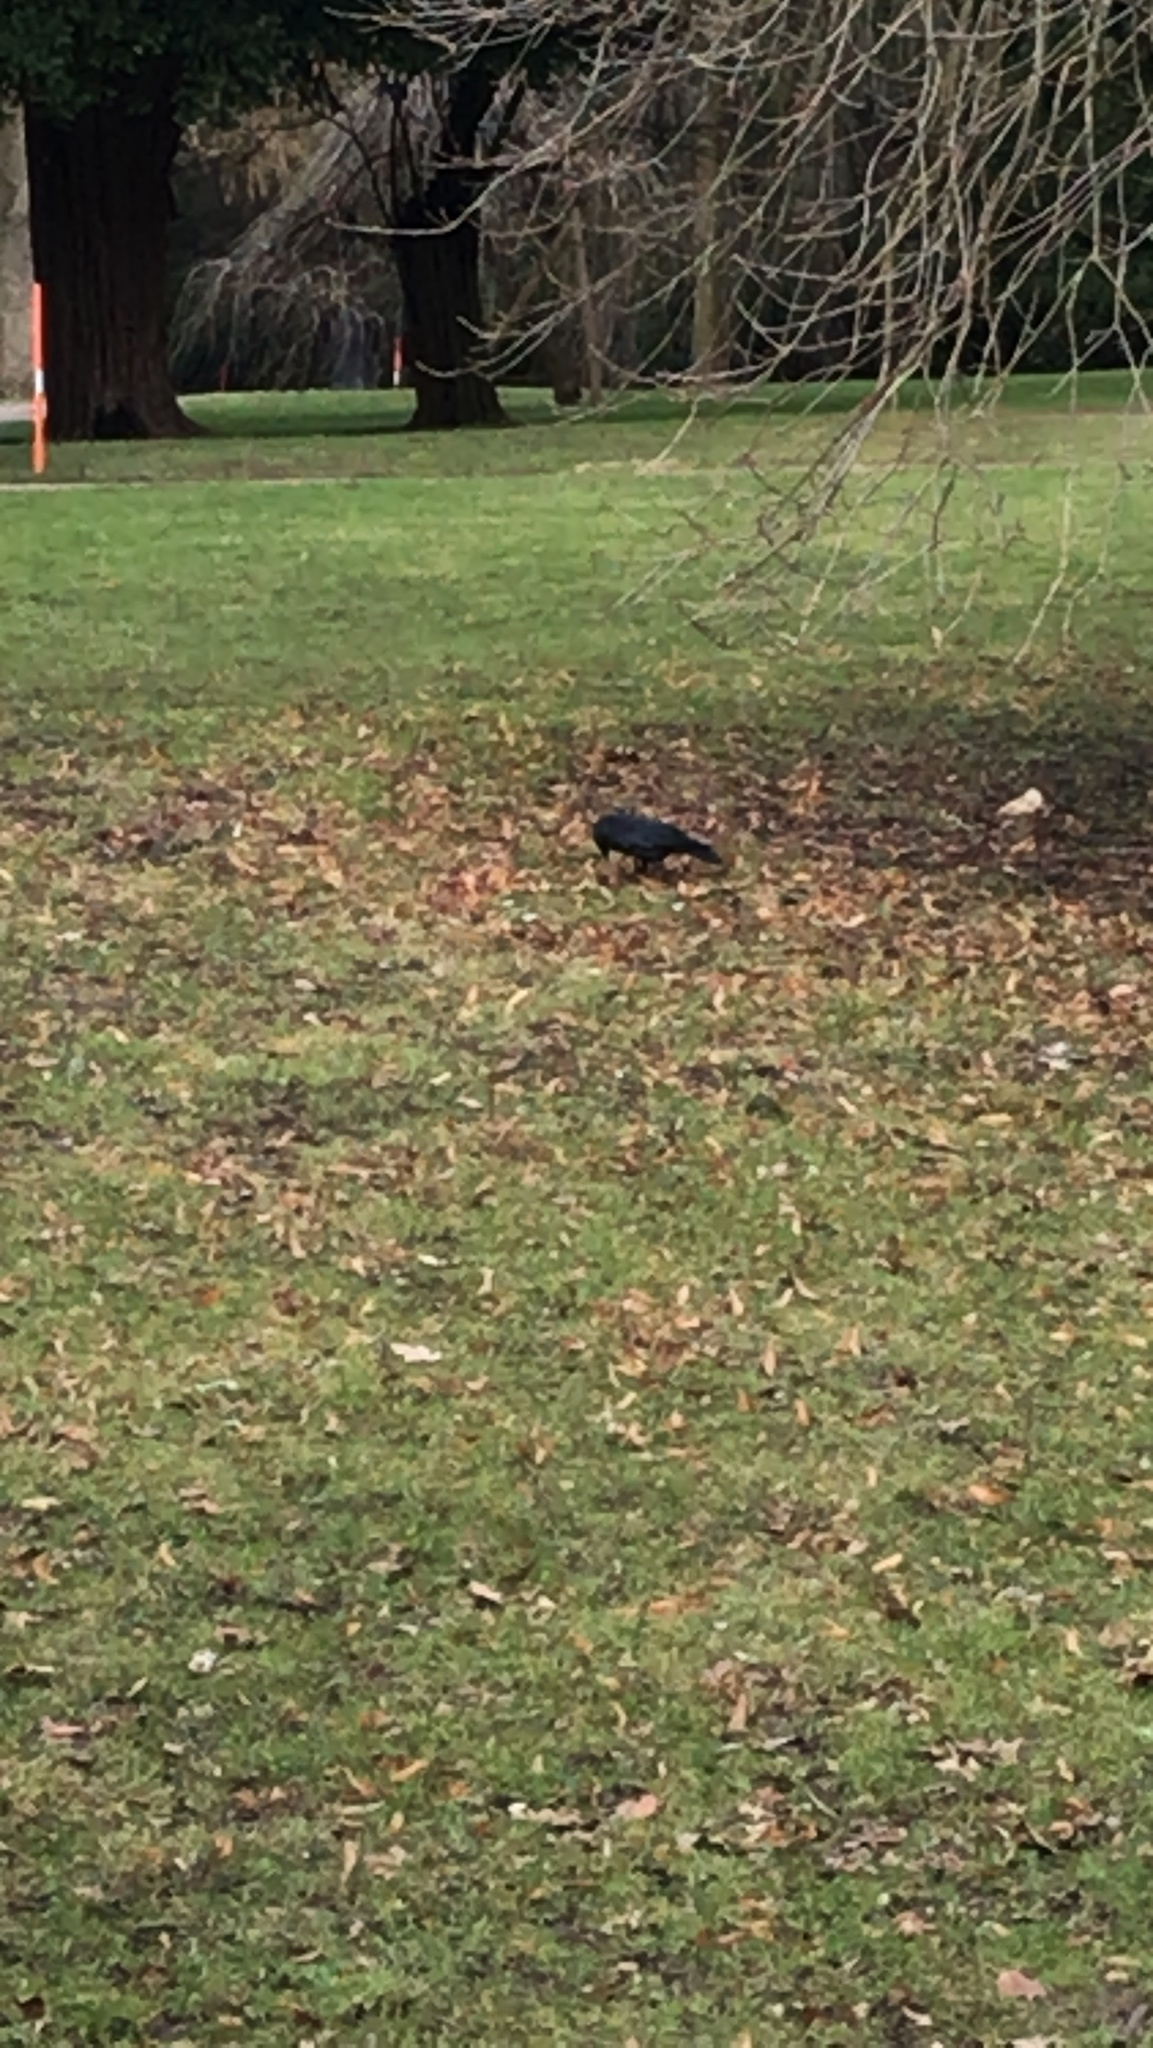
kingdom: Animalia
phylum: Chordata
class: Aves
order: Passeriformes
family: Corvidae
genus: Coloeus
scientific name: Coloeus monedula
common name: Western jackdaw
